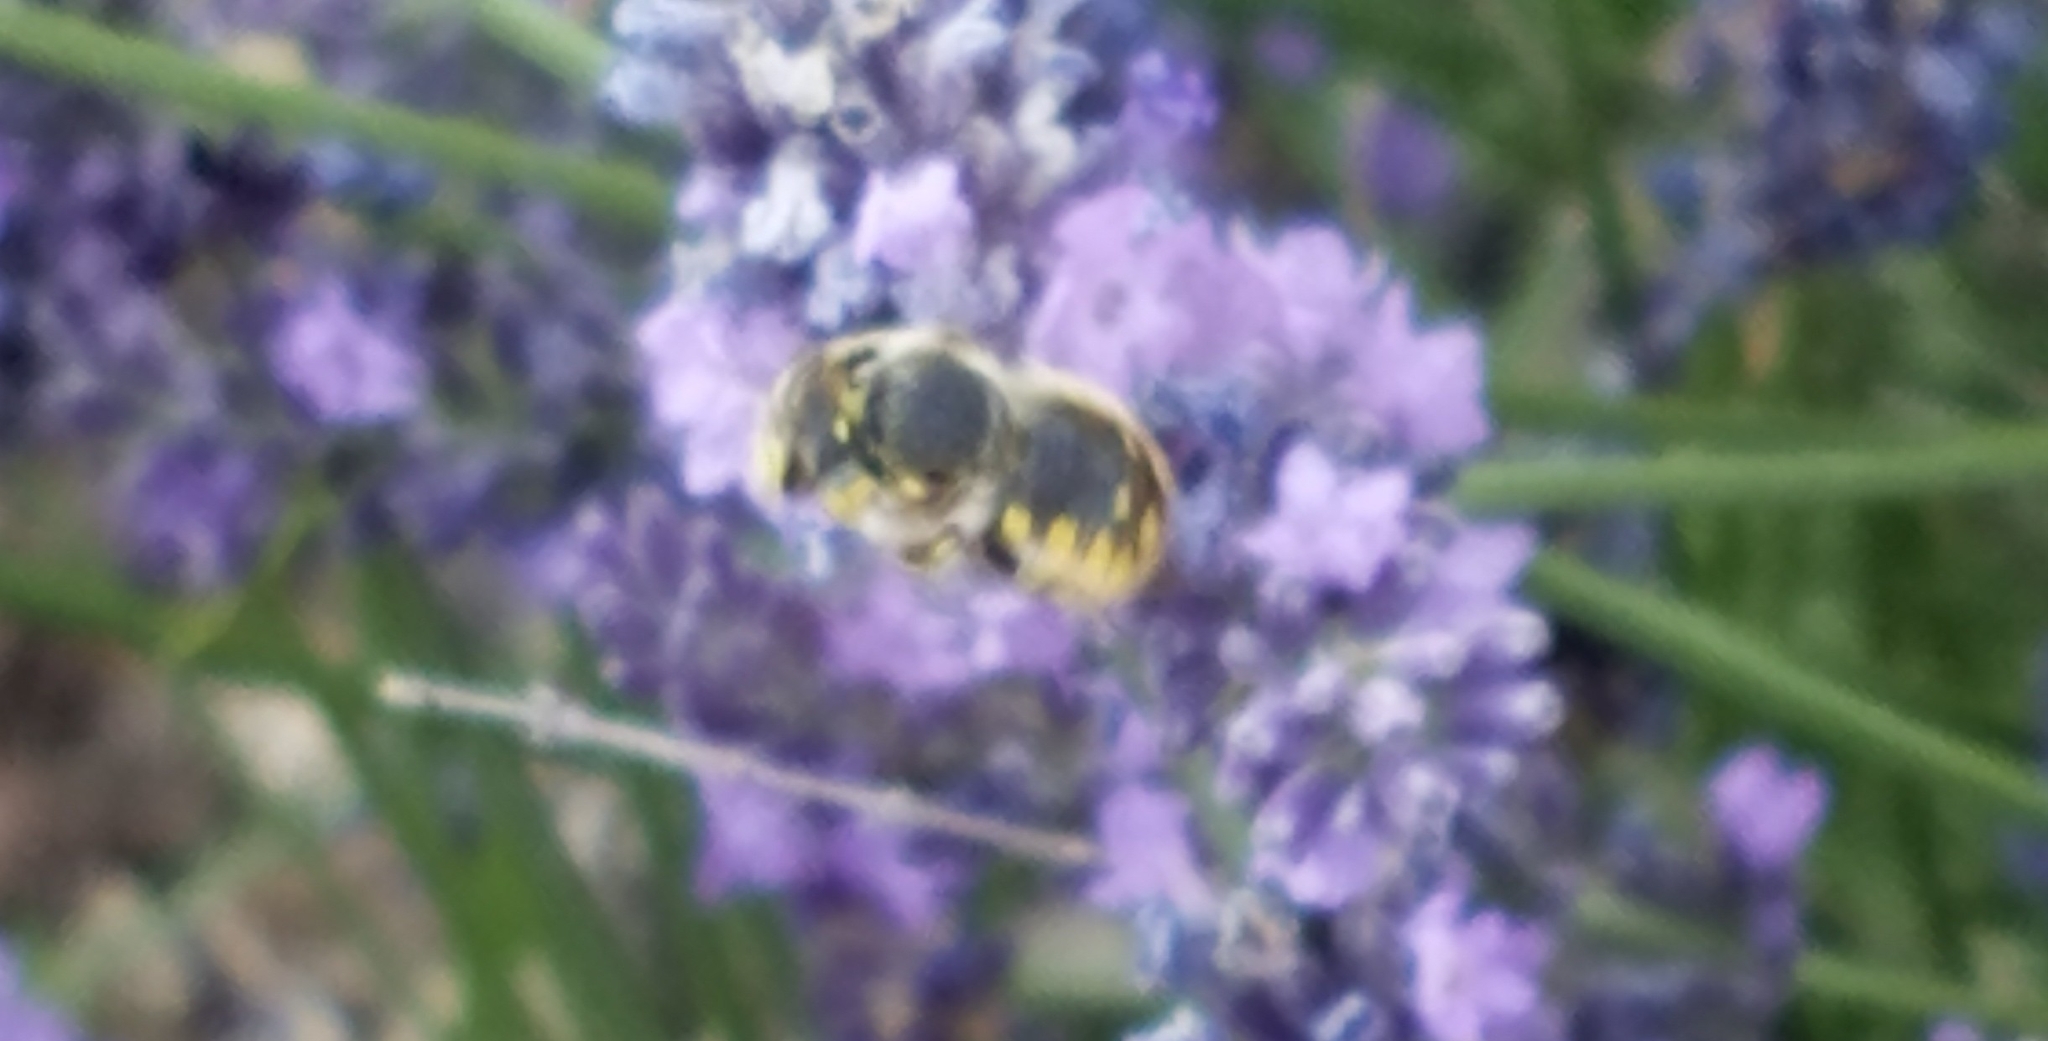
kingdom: Animalia
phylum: Arthropoda
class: Insecta
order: Hymenoptera
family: Megachilidae
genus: Anthidium
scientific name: Anthidium manicatum
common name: Wool carder bee
